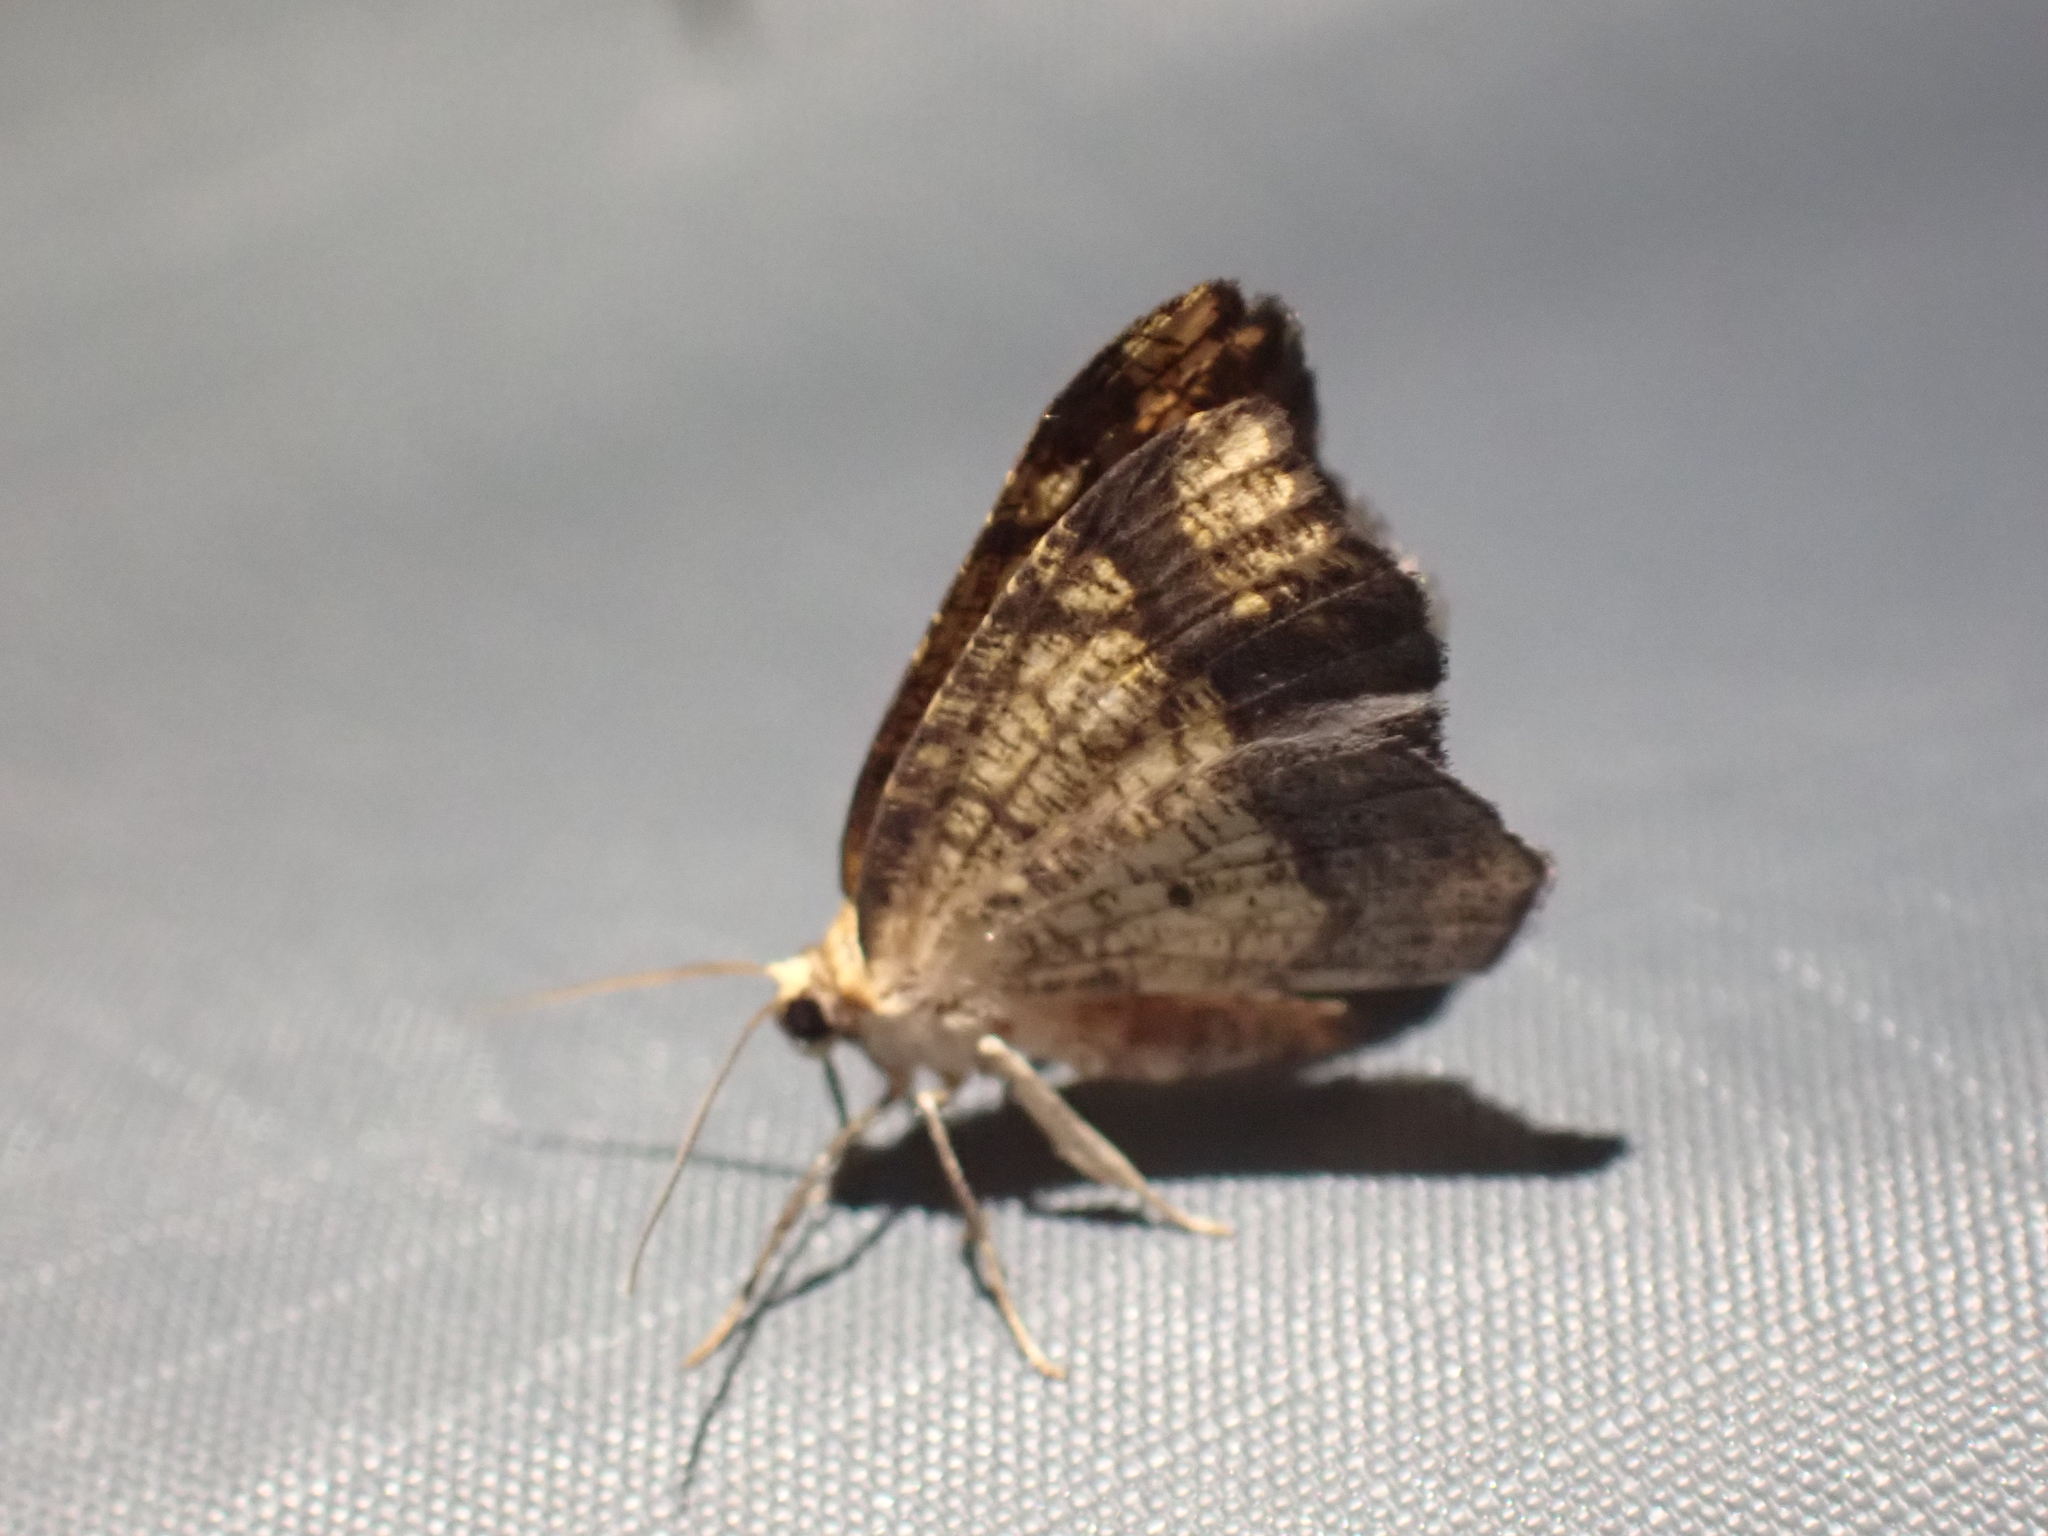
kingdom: Animalia
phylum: Arthropoda
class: Insecta
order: Lepidoptera
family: Geometridae
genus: Nematocampa
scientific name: Nematocampa resistaria
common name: Horned spanworm moth
